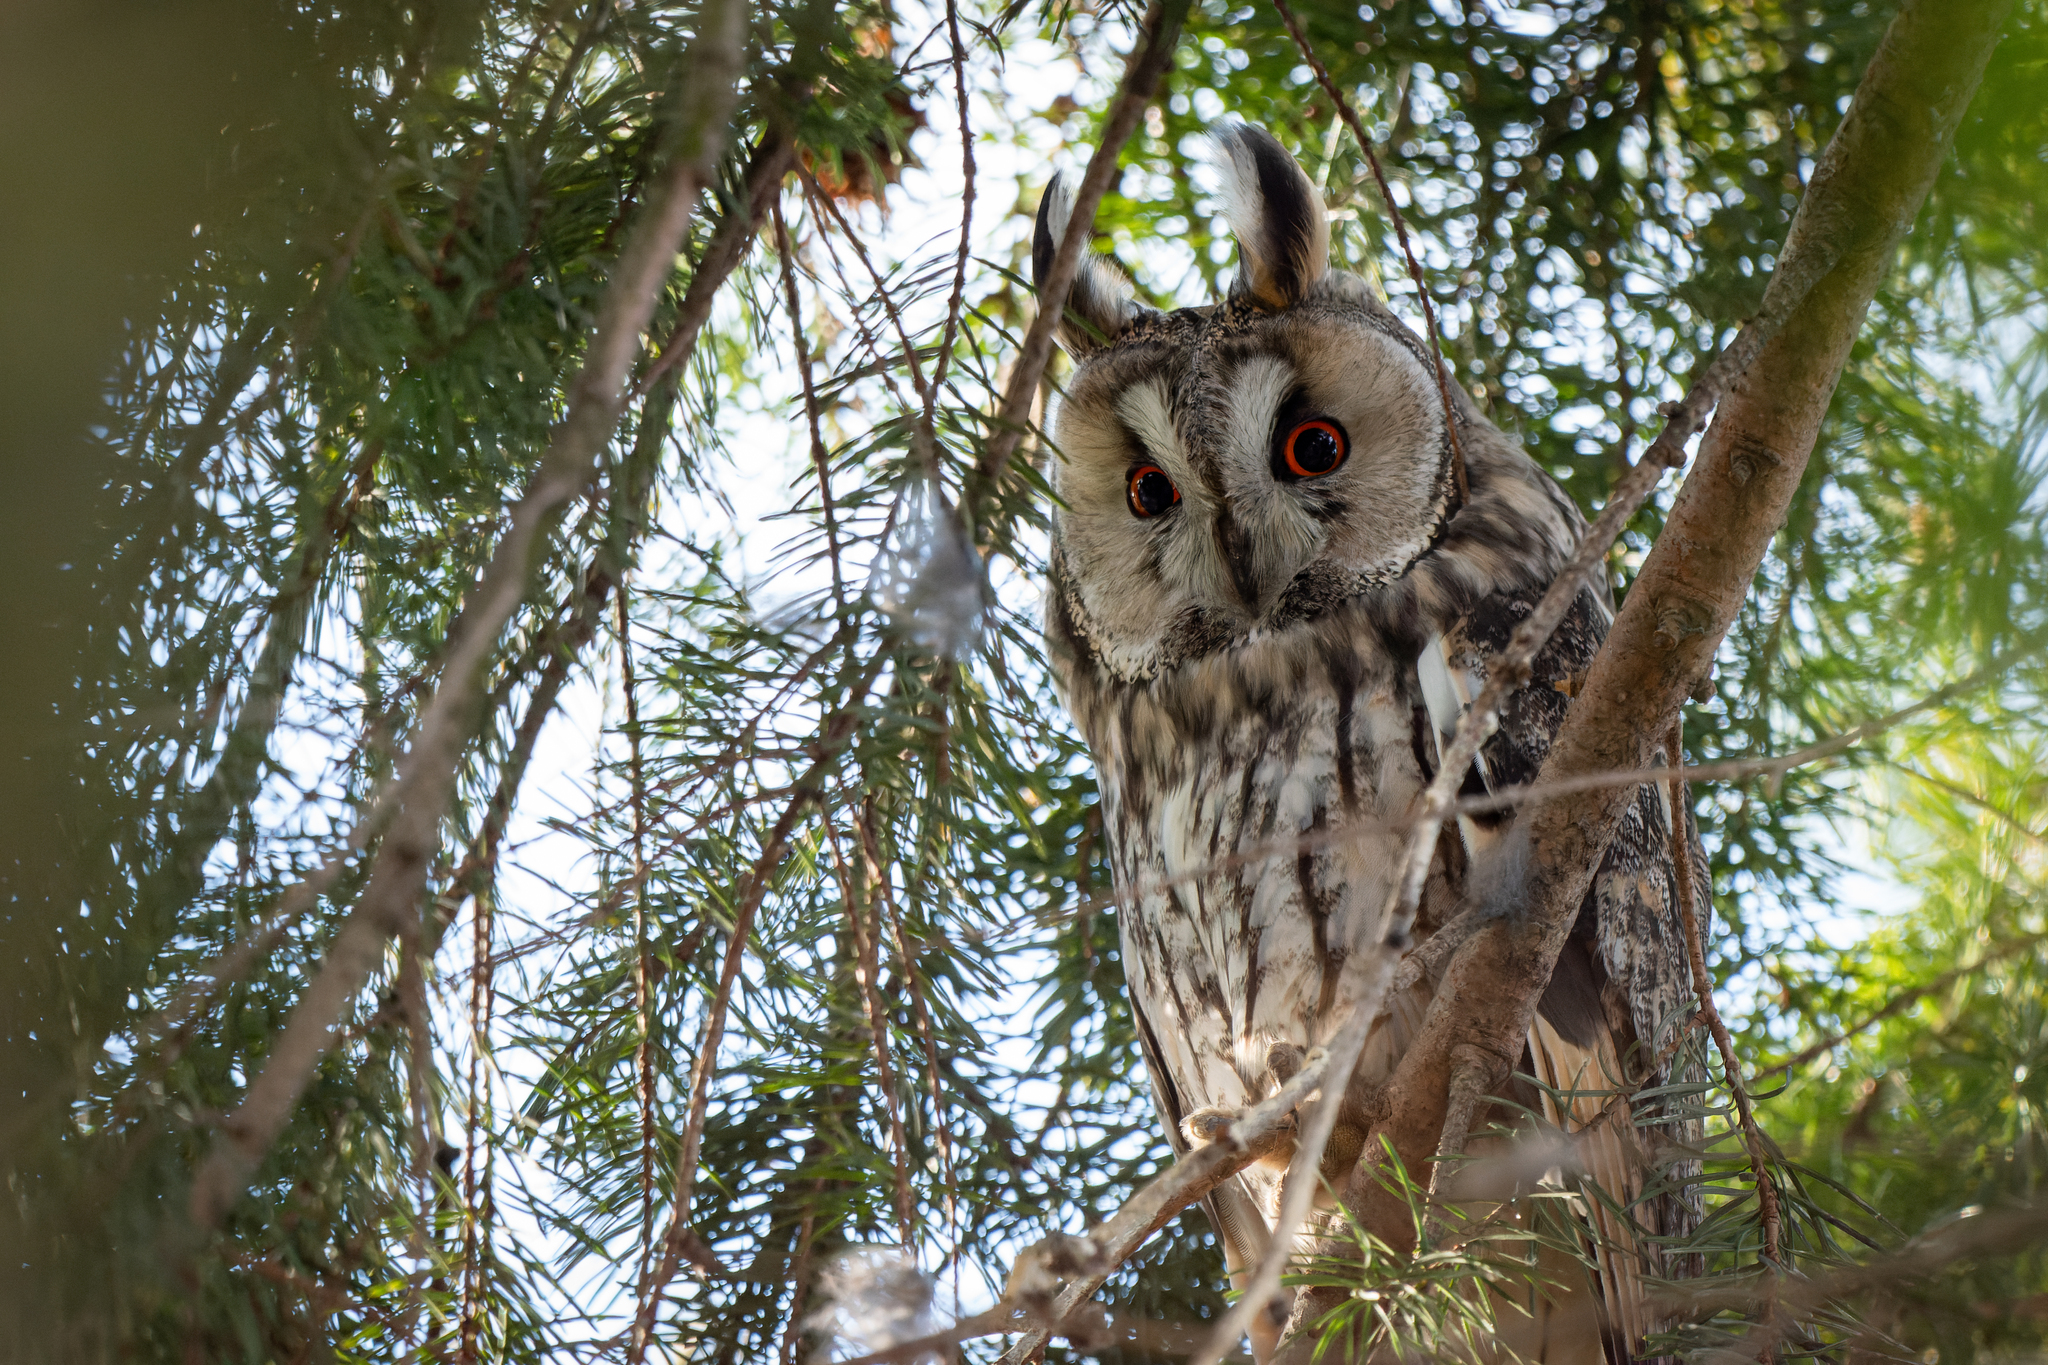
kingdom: Animalia
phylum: Chordata
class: Aves
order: Strigiformes
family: Strigidae
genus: Asio
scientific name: Asio otus
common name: Long-eared owl
